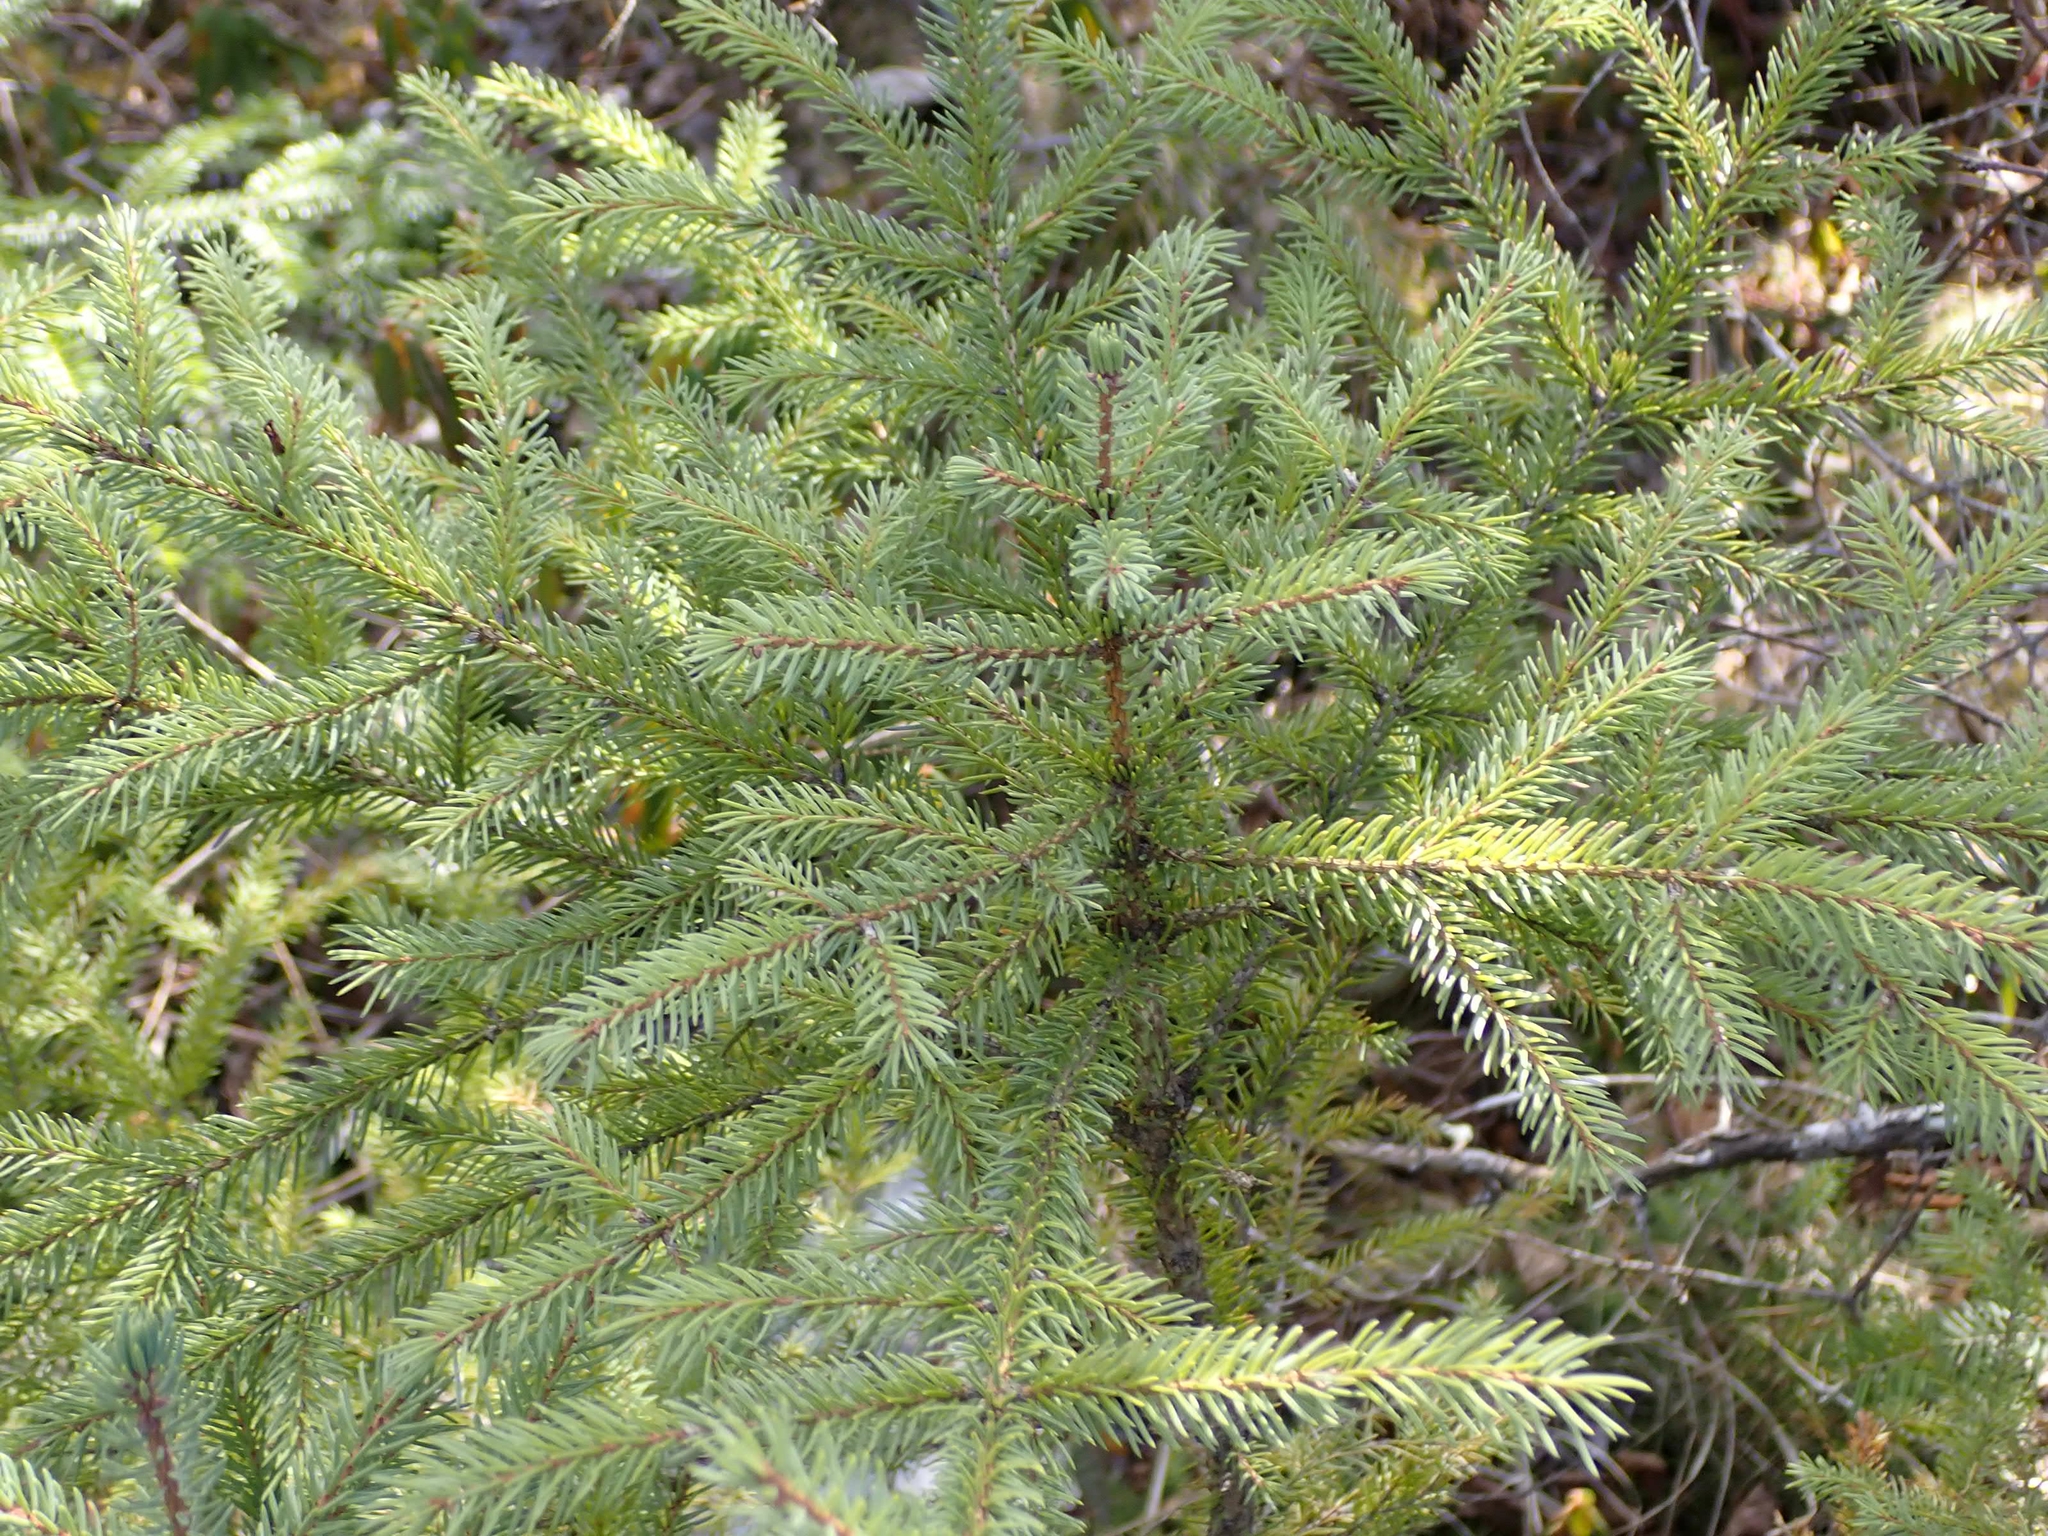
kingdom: Plantae
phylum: Tracheophyta
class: Pinopsida
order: Pinales
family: Pinaceae
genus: Picea
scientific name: Picea mariana
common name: Black spruce
